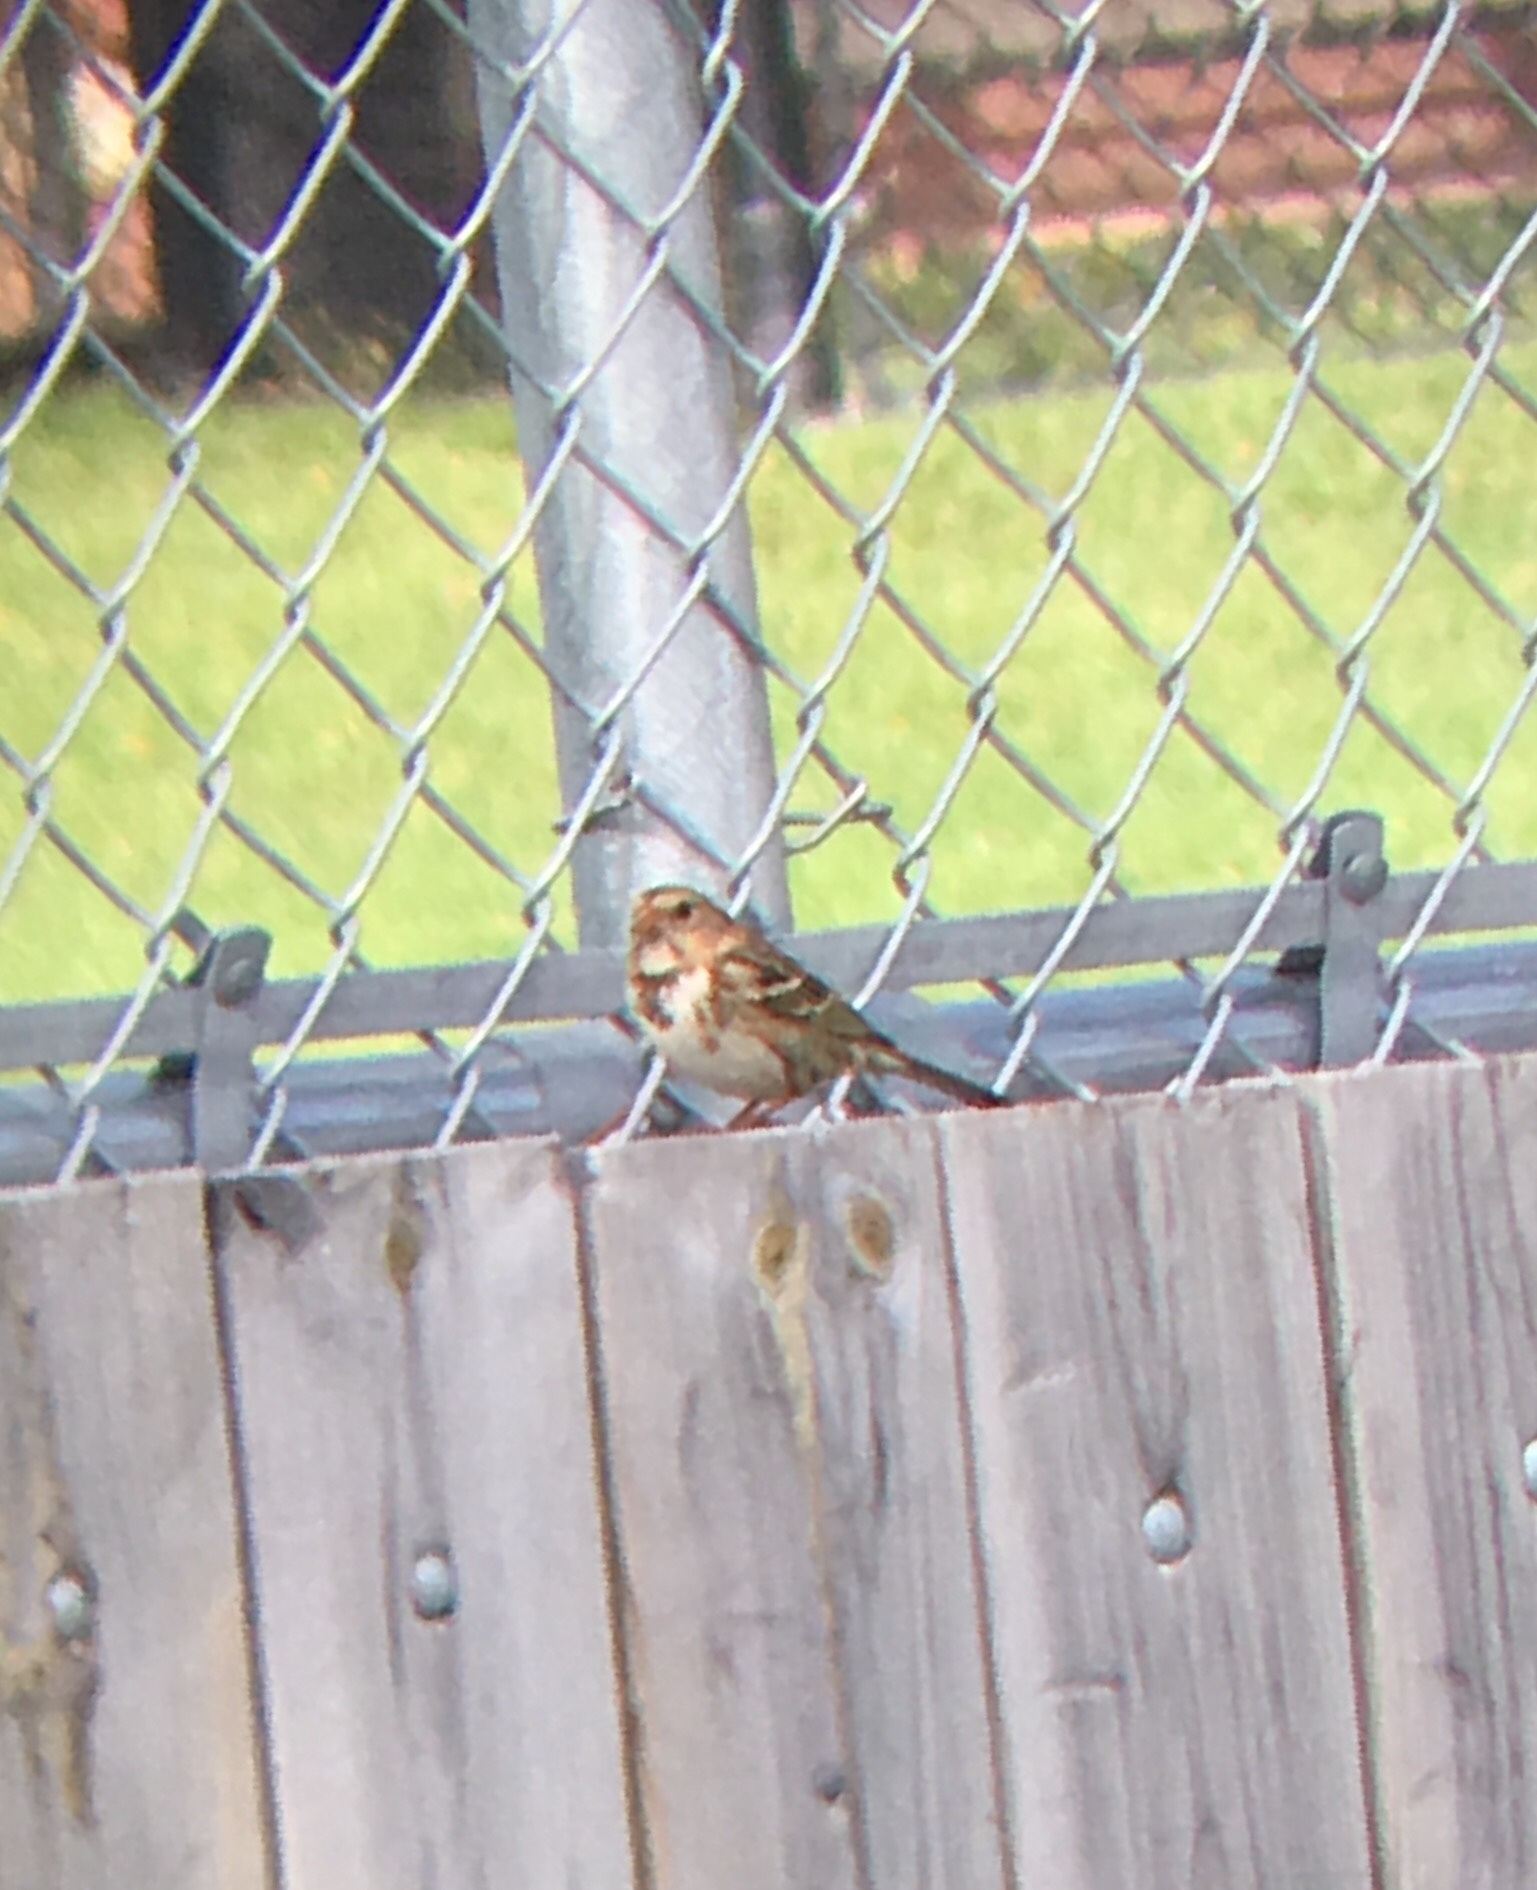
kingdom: Animalia
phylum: Chordata
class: Aves
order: Passeriformes
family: Passerellidae
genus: Zonotrichia
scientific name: Zonotrichia querula
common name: Harris's sparrow
